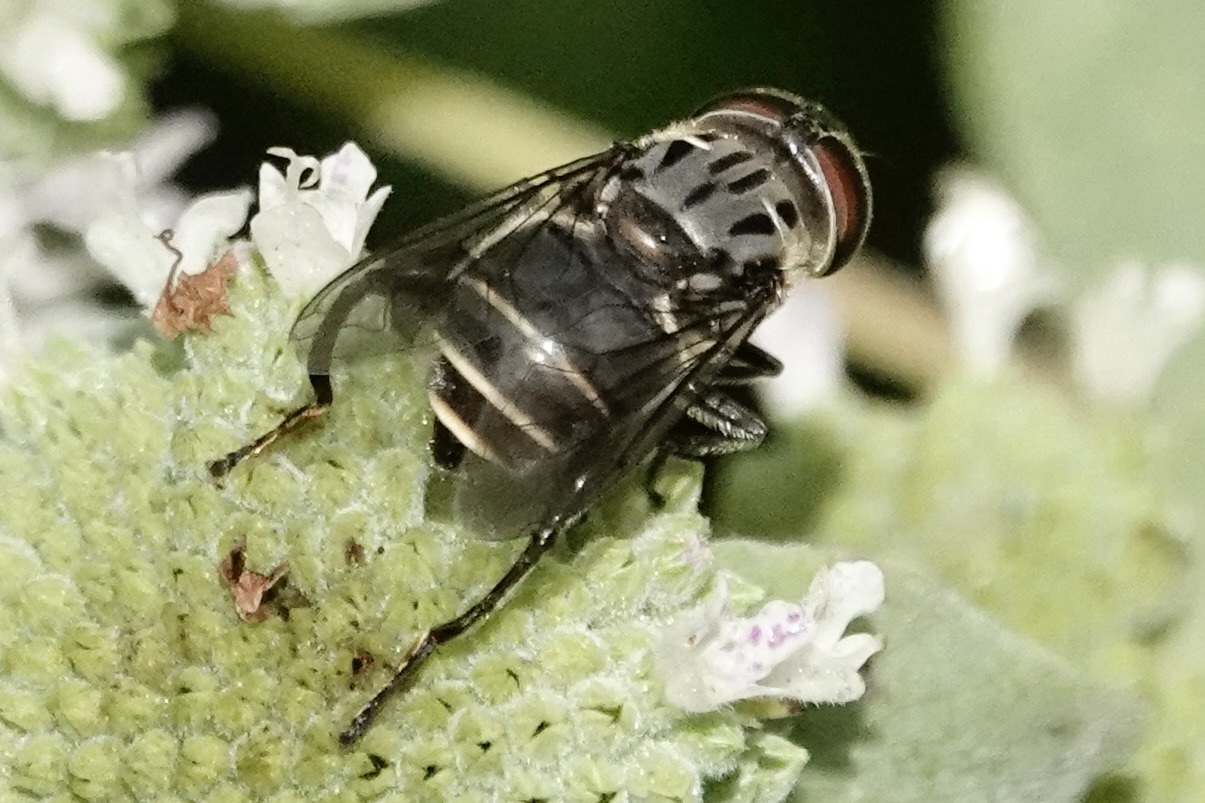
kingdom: Animalia
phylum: Arthropoda
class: Insecta
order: Diptera
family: Syrphidae
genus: Palpada
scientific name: Palpada furcata
